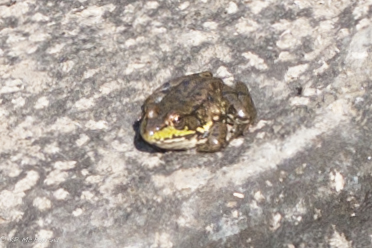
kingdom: Animalia
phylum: Chordata
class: Amphibia
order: Anura
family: Ranidae
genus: Lithobates
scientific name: Lithobates clamitans
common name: Green frog
